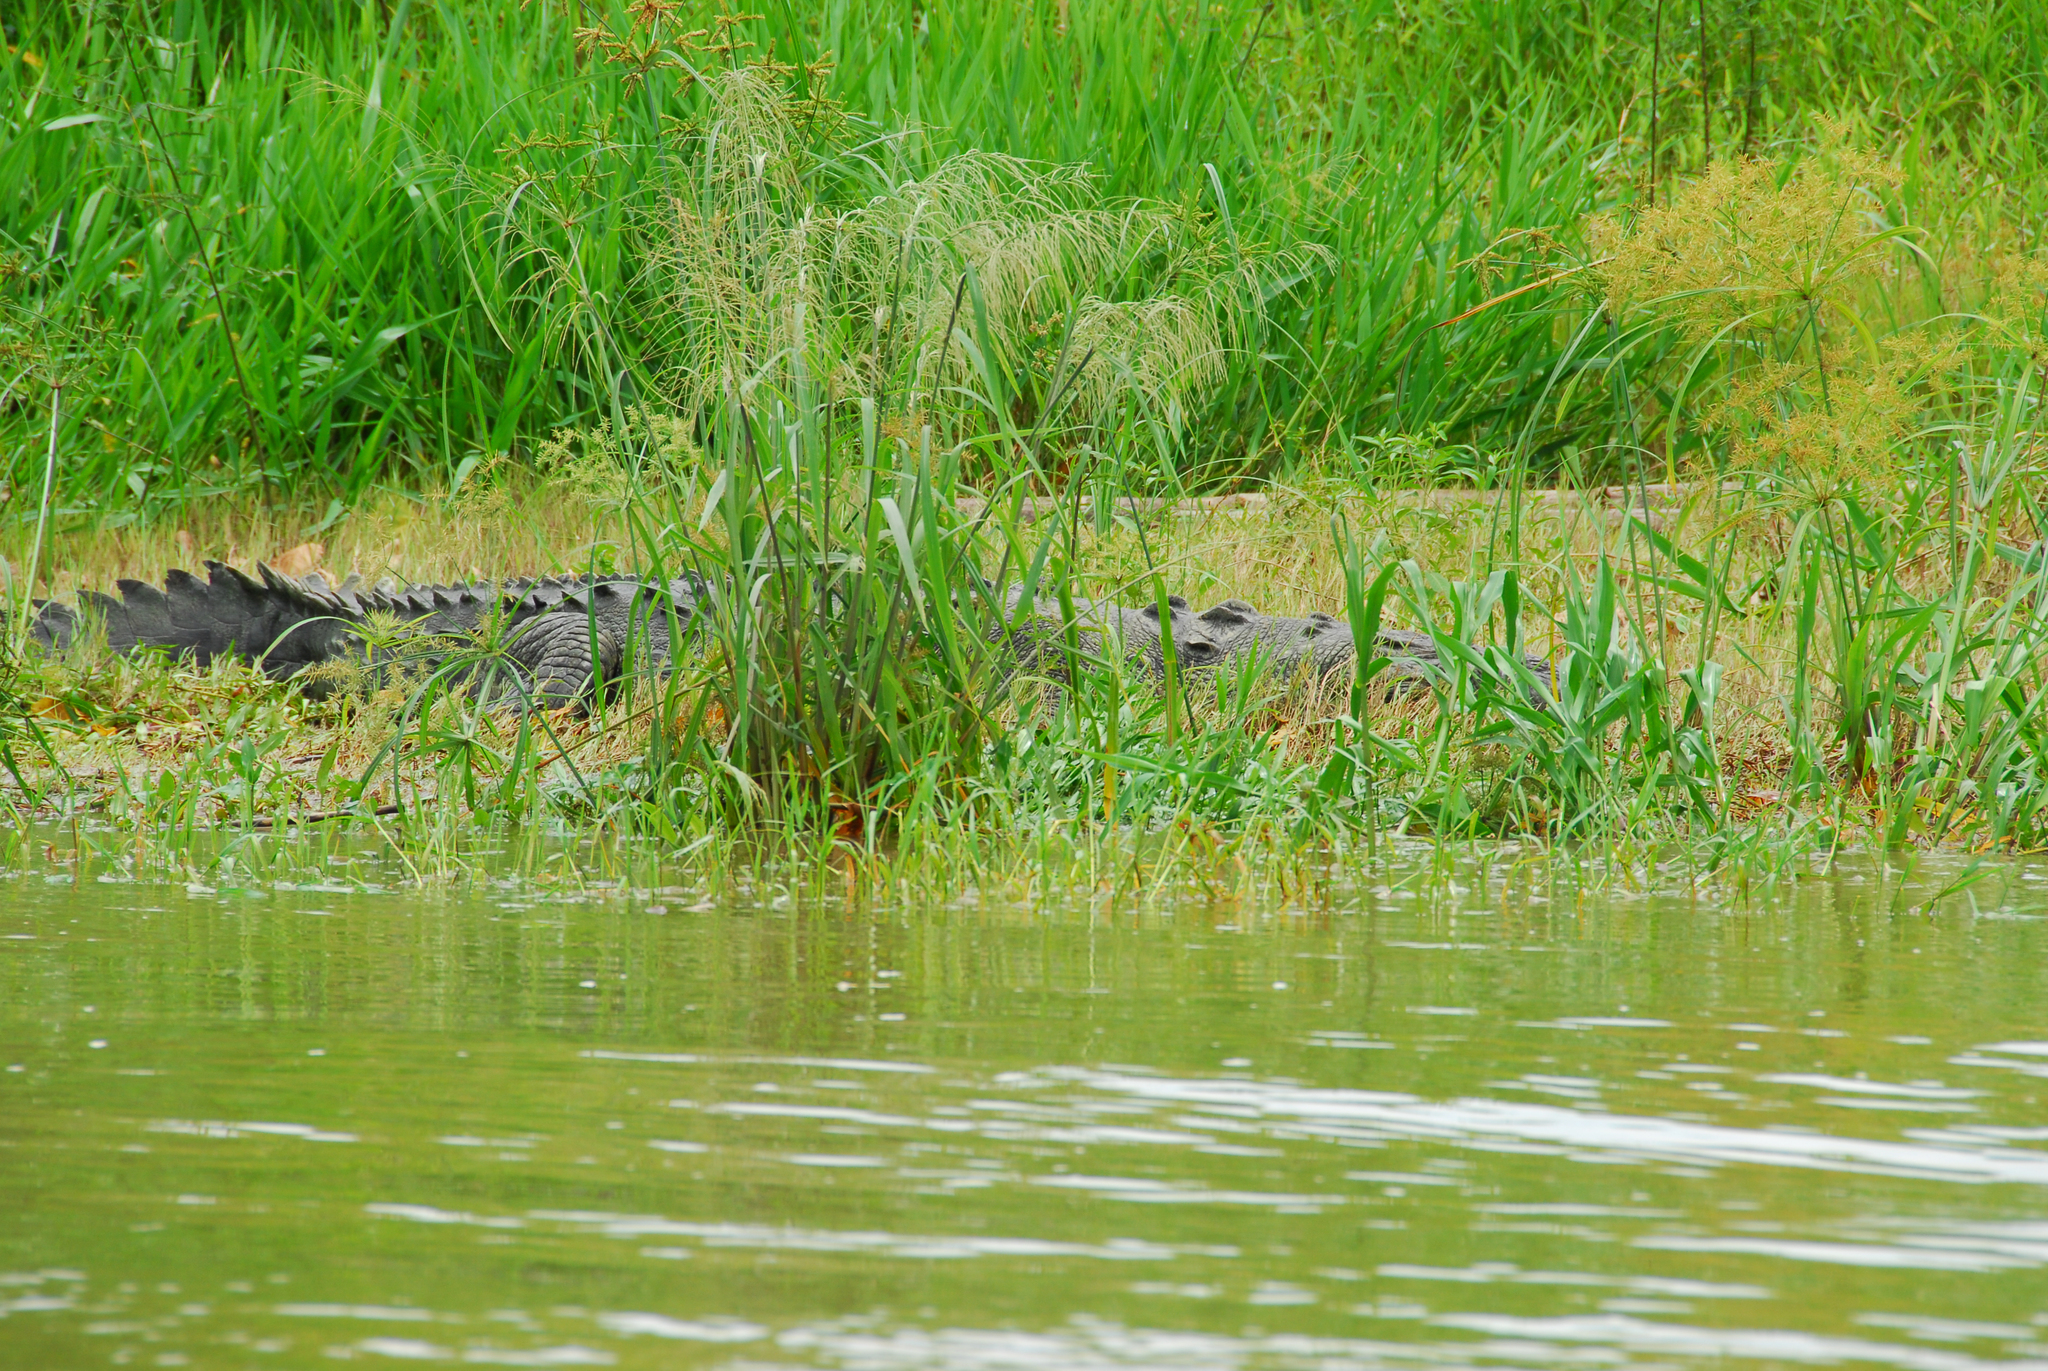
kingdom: Animalia
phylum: Chordata
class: Crocodylia
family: Crocodylidae
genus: Crocodylus
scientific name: Crocodylus acutus
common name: American crocodile
